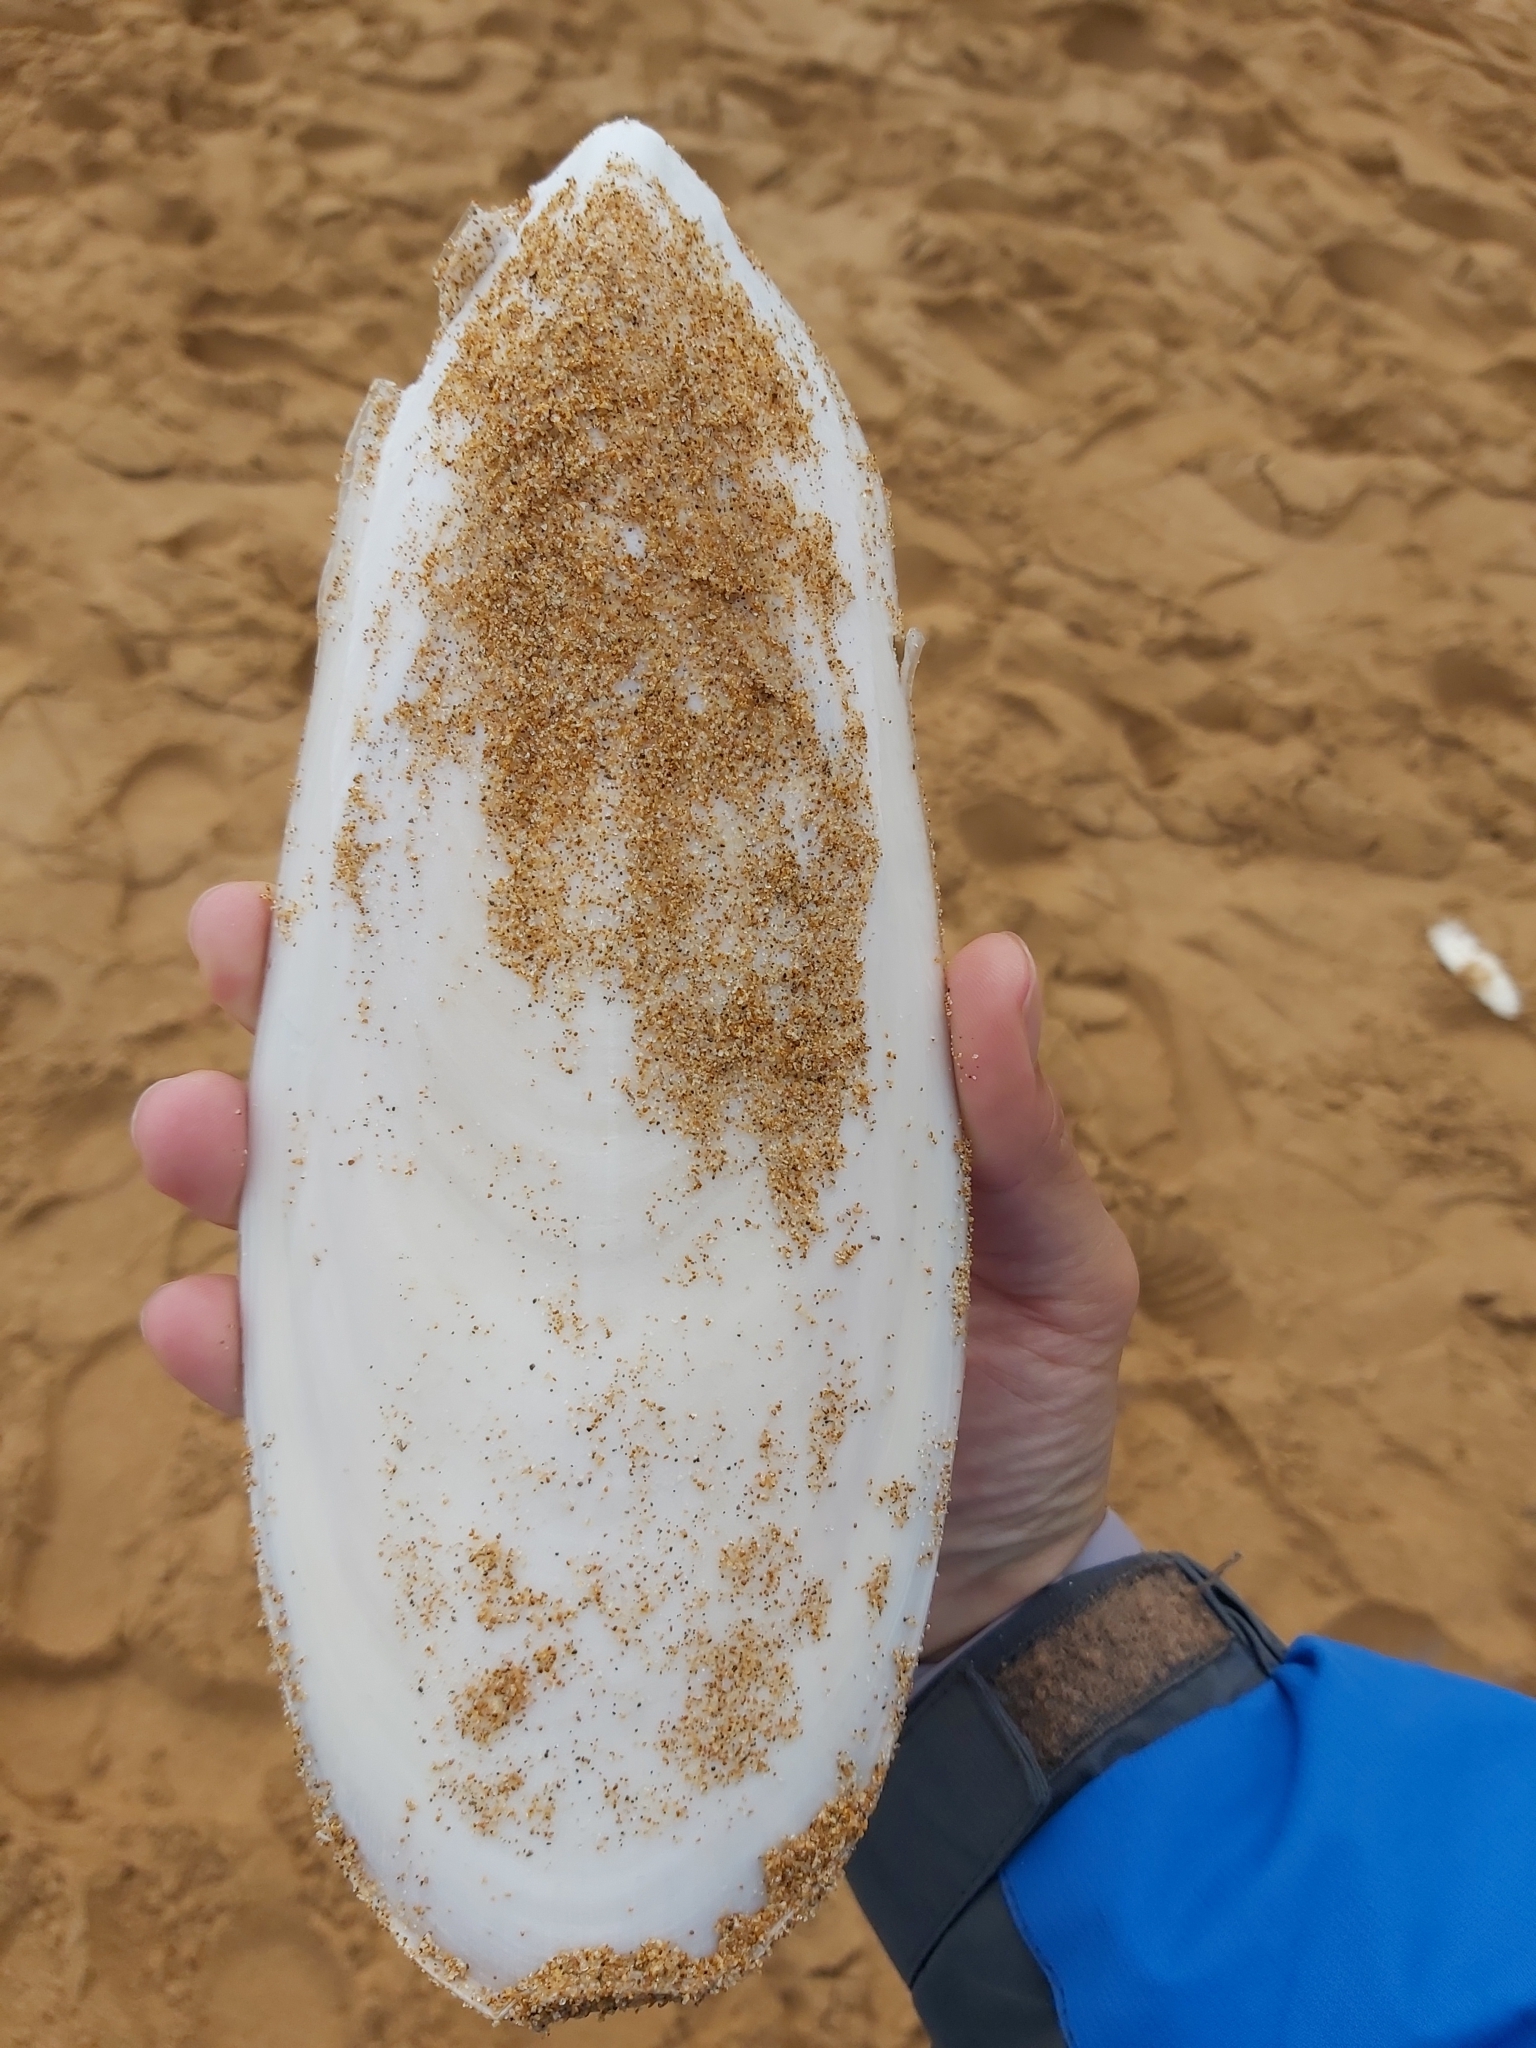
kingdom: Animalia
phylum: Mollusca
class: Cephalopoda
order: Sepiida
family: Sepiidae
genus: Ascarosepion
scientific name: Ascarosepion apama
